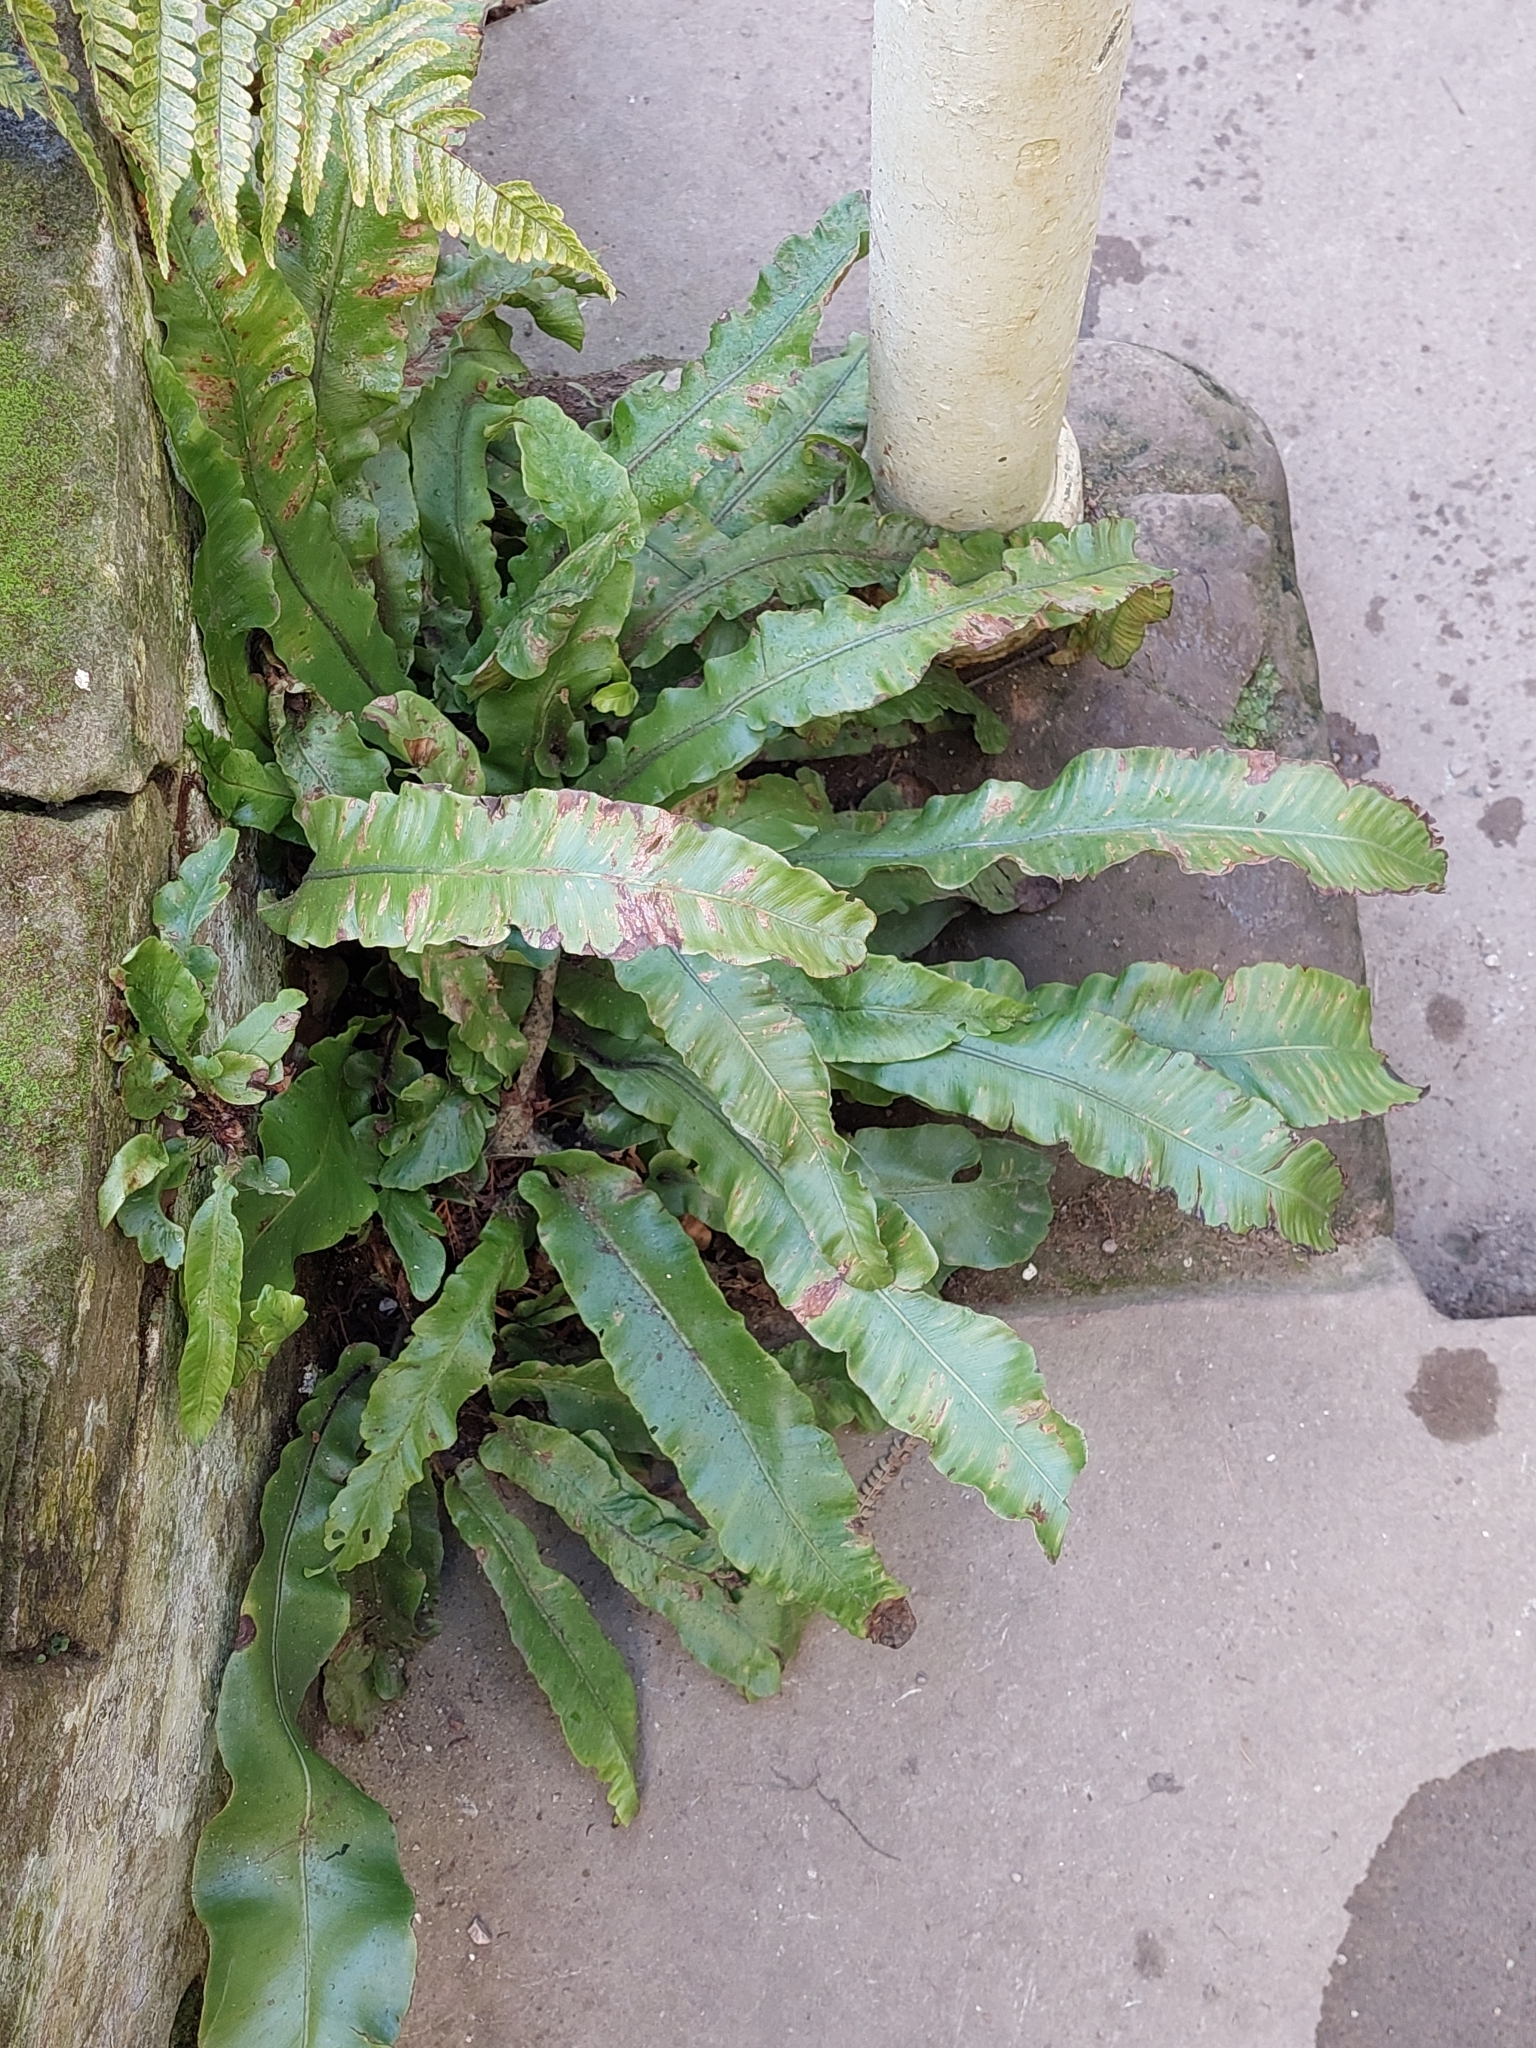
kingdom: Plantae
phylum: Tracheophyta
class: Polypodiopsida
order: Polypodiales
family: Aspleniaceae
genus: Asplenium
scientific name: Asplenium scolopendrium
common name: Hart's-tongue fern
